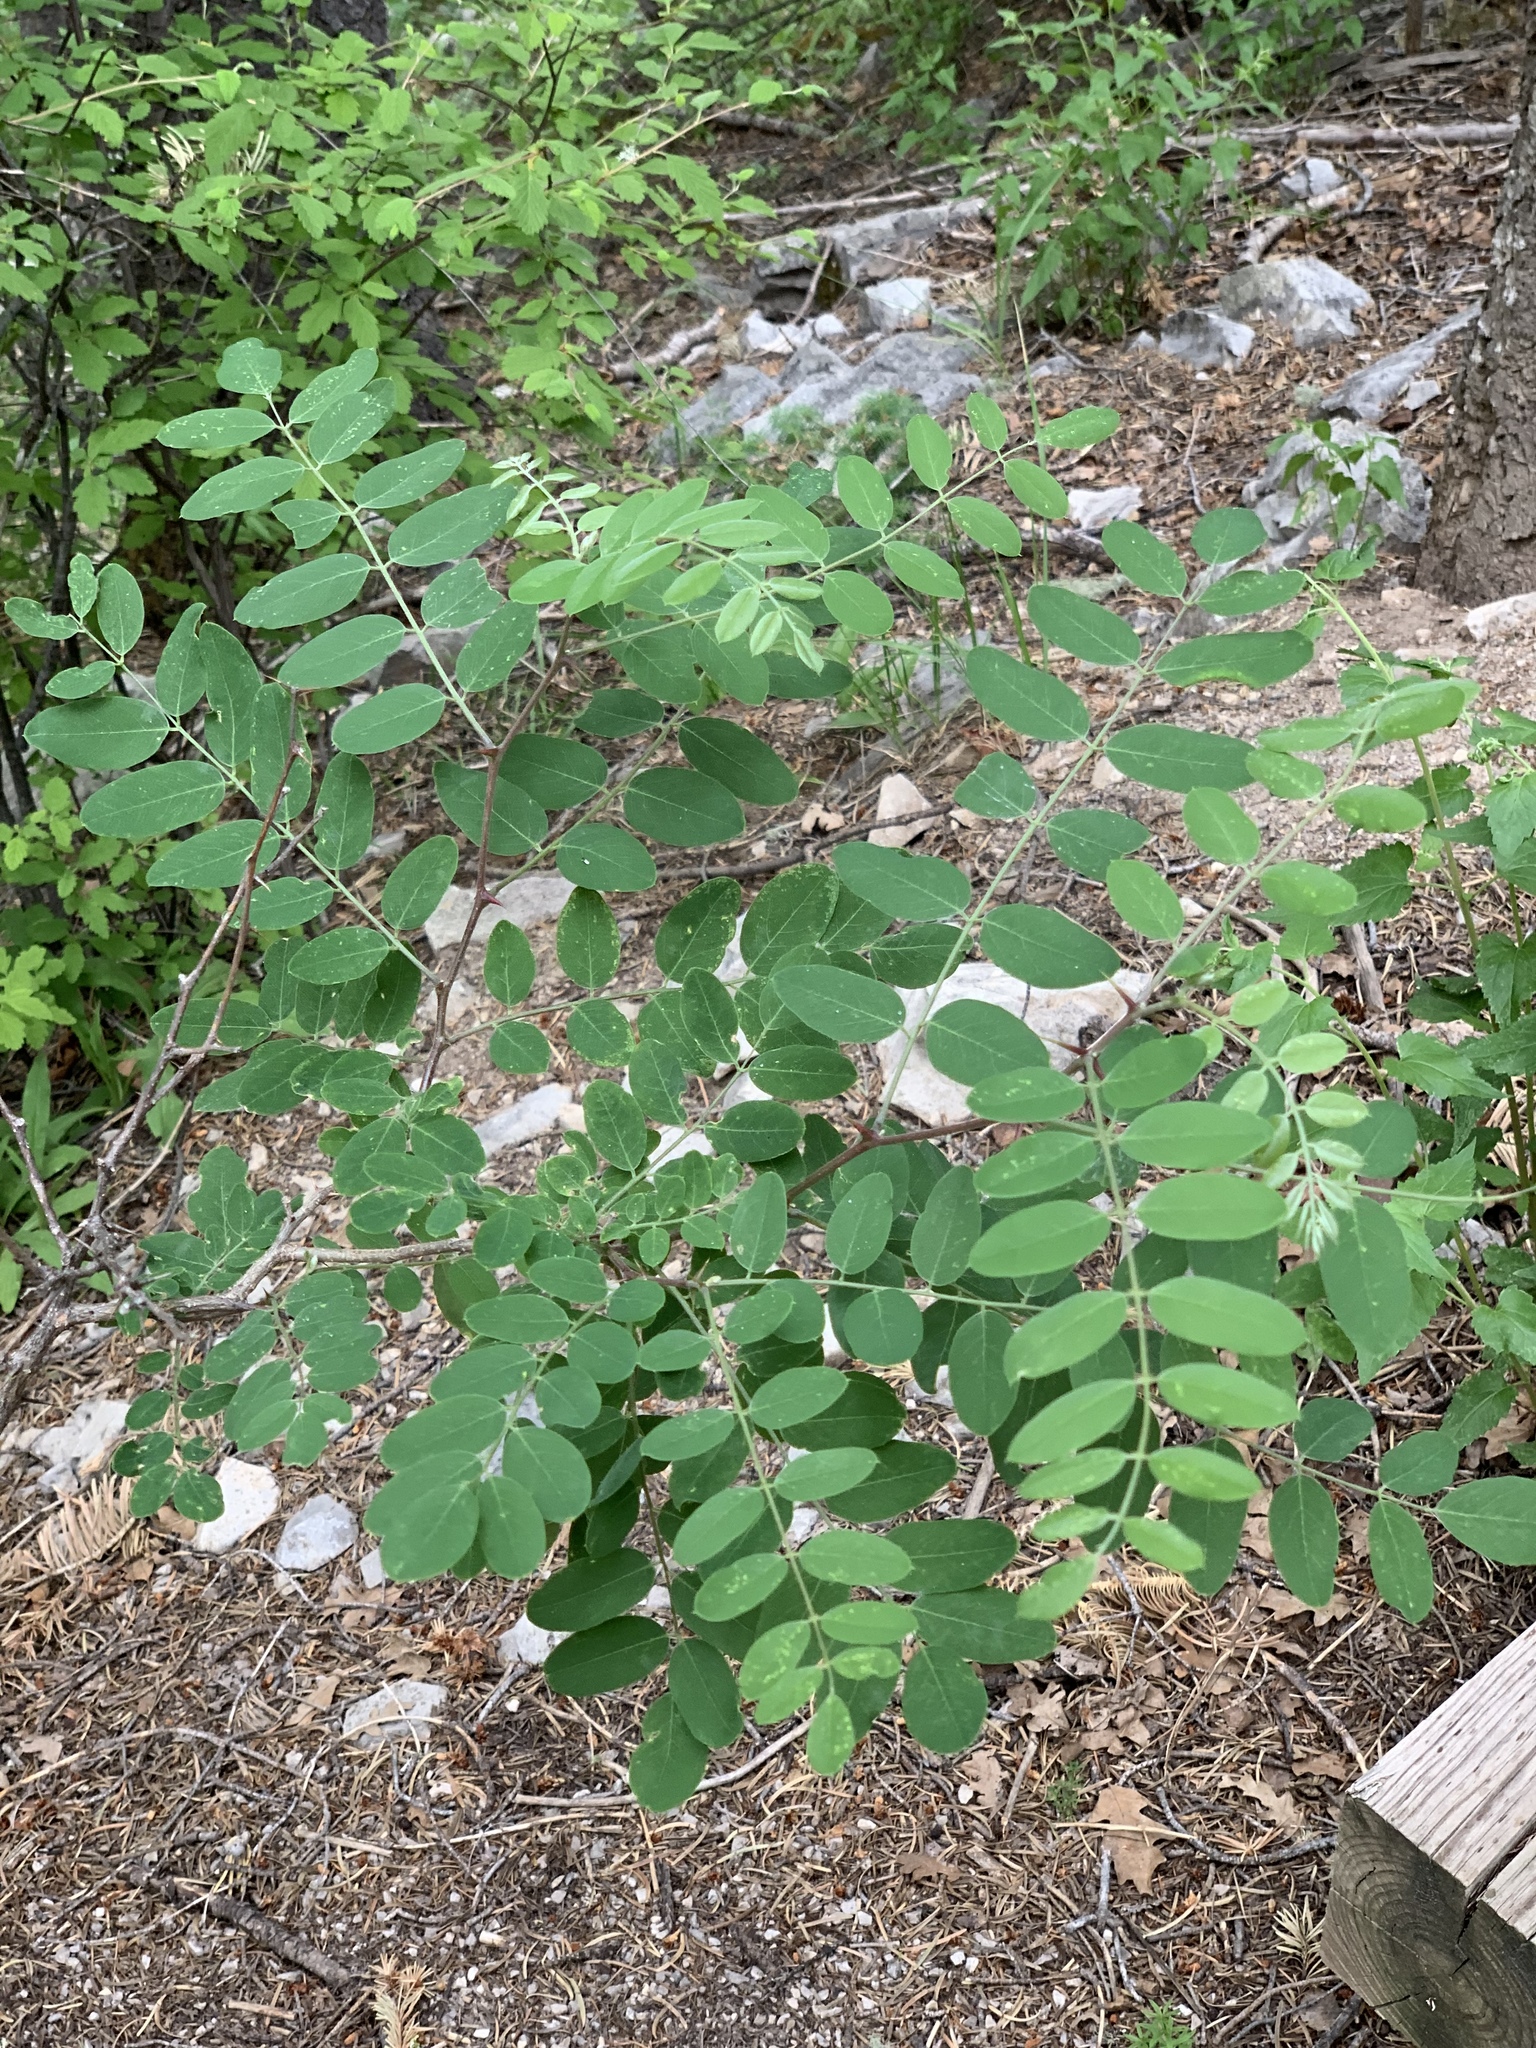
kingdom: Plantae
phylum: Tracheophyta
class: Magnoliopsida
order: Fabales
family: Fabaceae
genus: Robinia
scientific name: Robinia neomexicana
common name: New mexico locust
